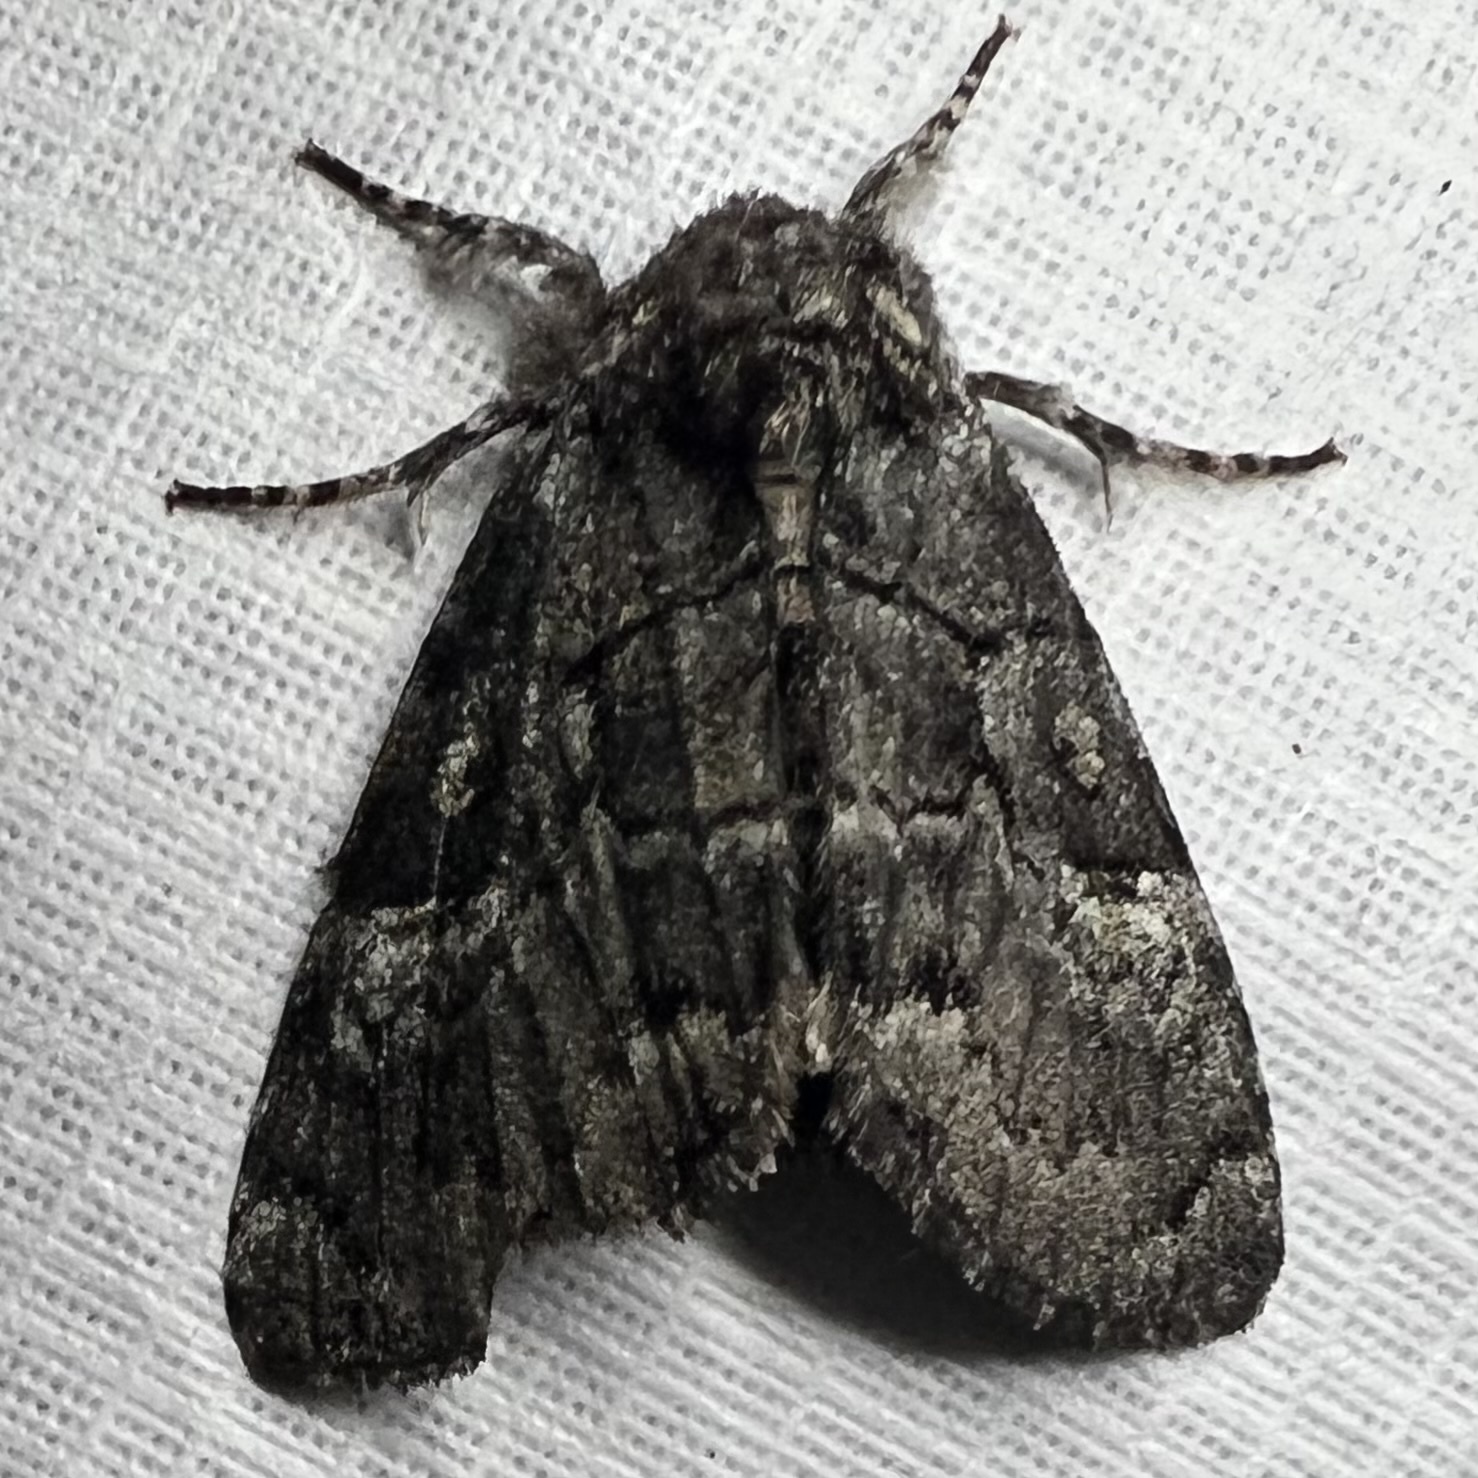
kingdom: Animalia
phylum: Arthropoda
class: Insecta
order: Lepidoptera
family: Noctuidae
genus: Charadra
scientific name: Charadra deridens
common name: Marbled tuffet
